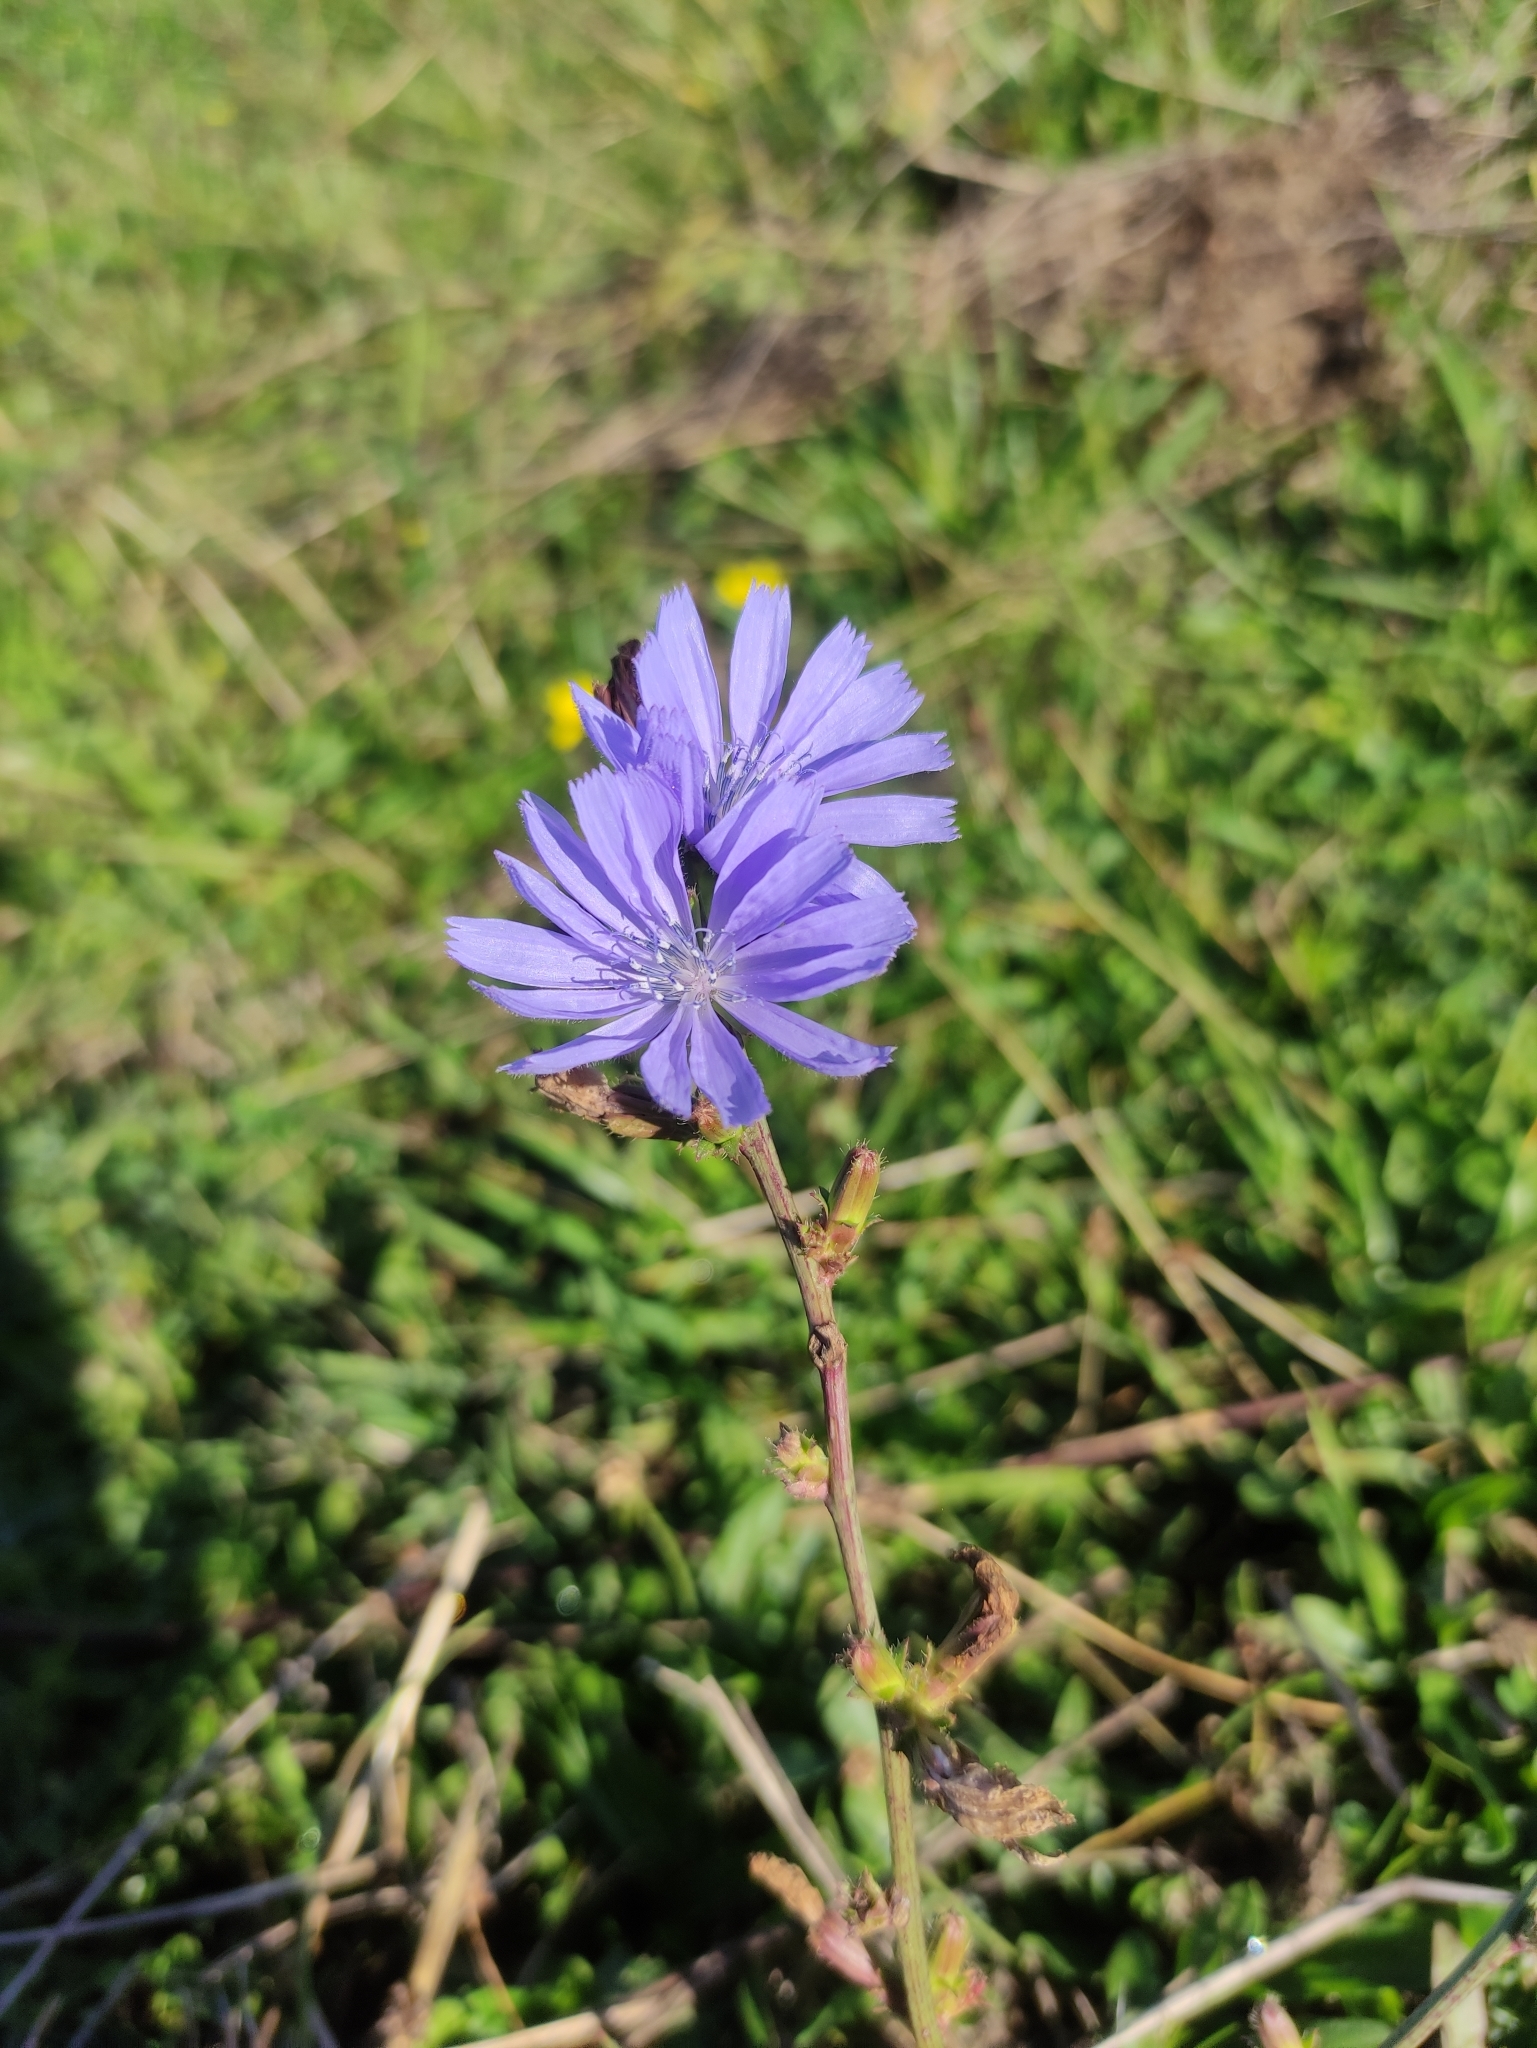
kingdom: Plantae
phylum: Tracheophyta
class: Magnoliopsida
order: Asterales
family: Asteraceae
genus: Cichorium
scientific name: Cichorium intybus
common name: Chicory
